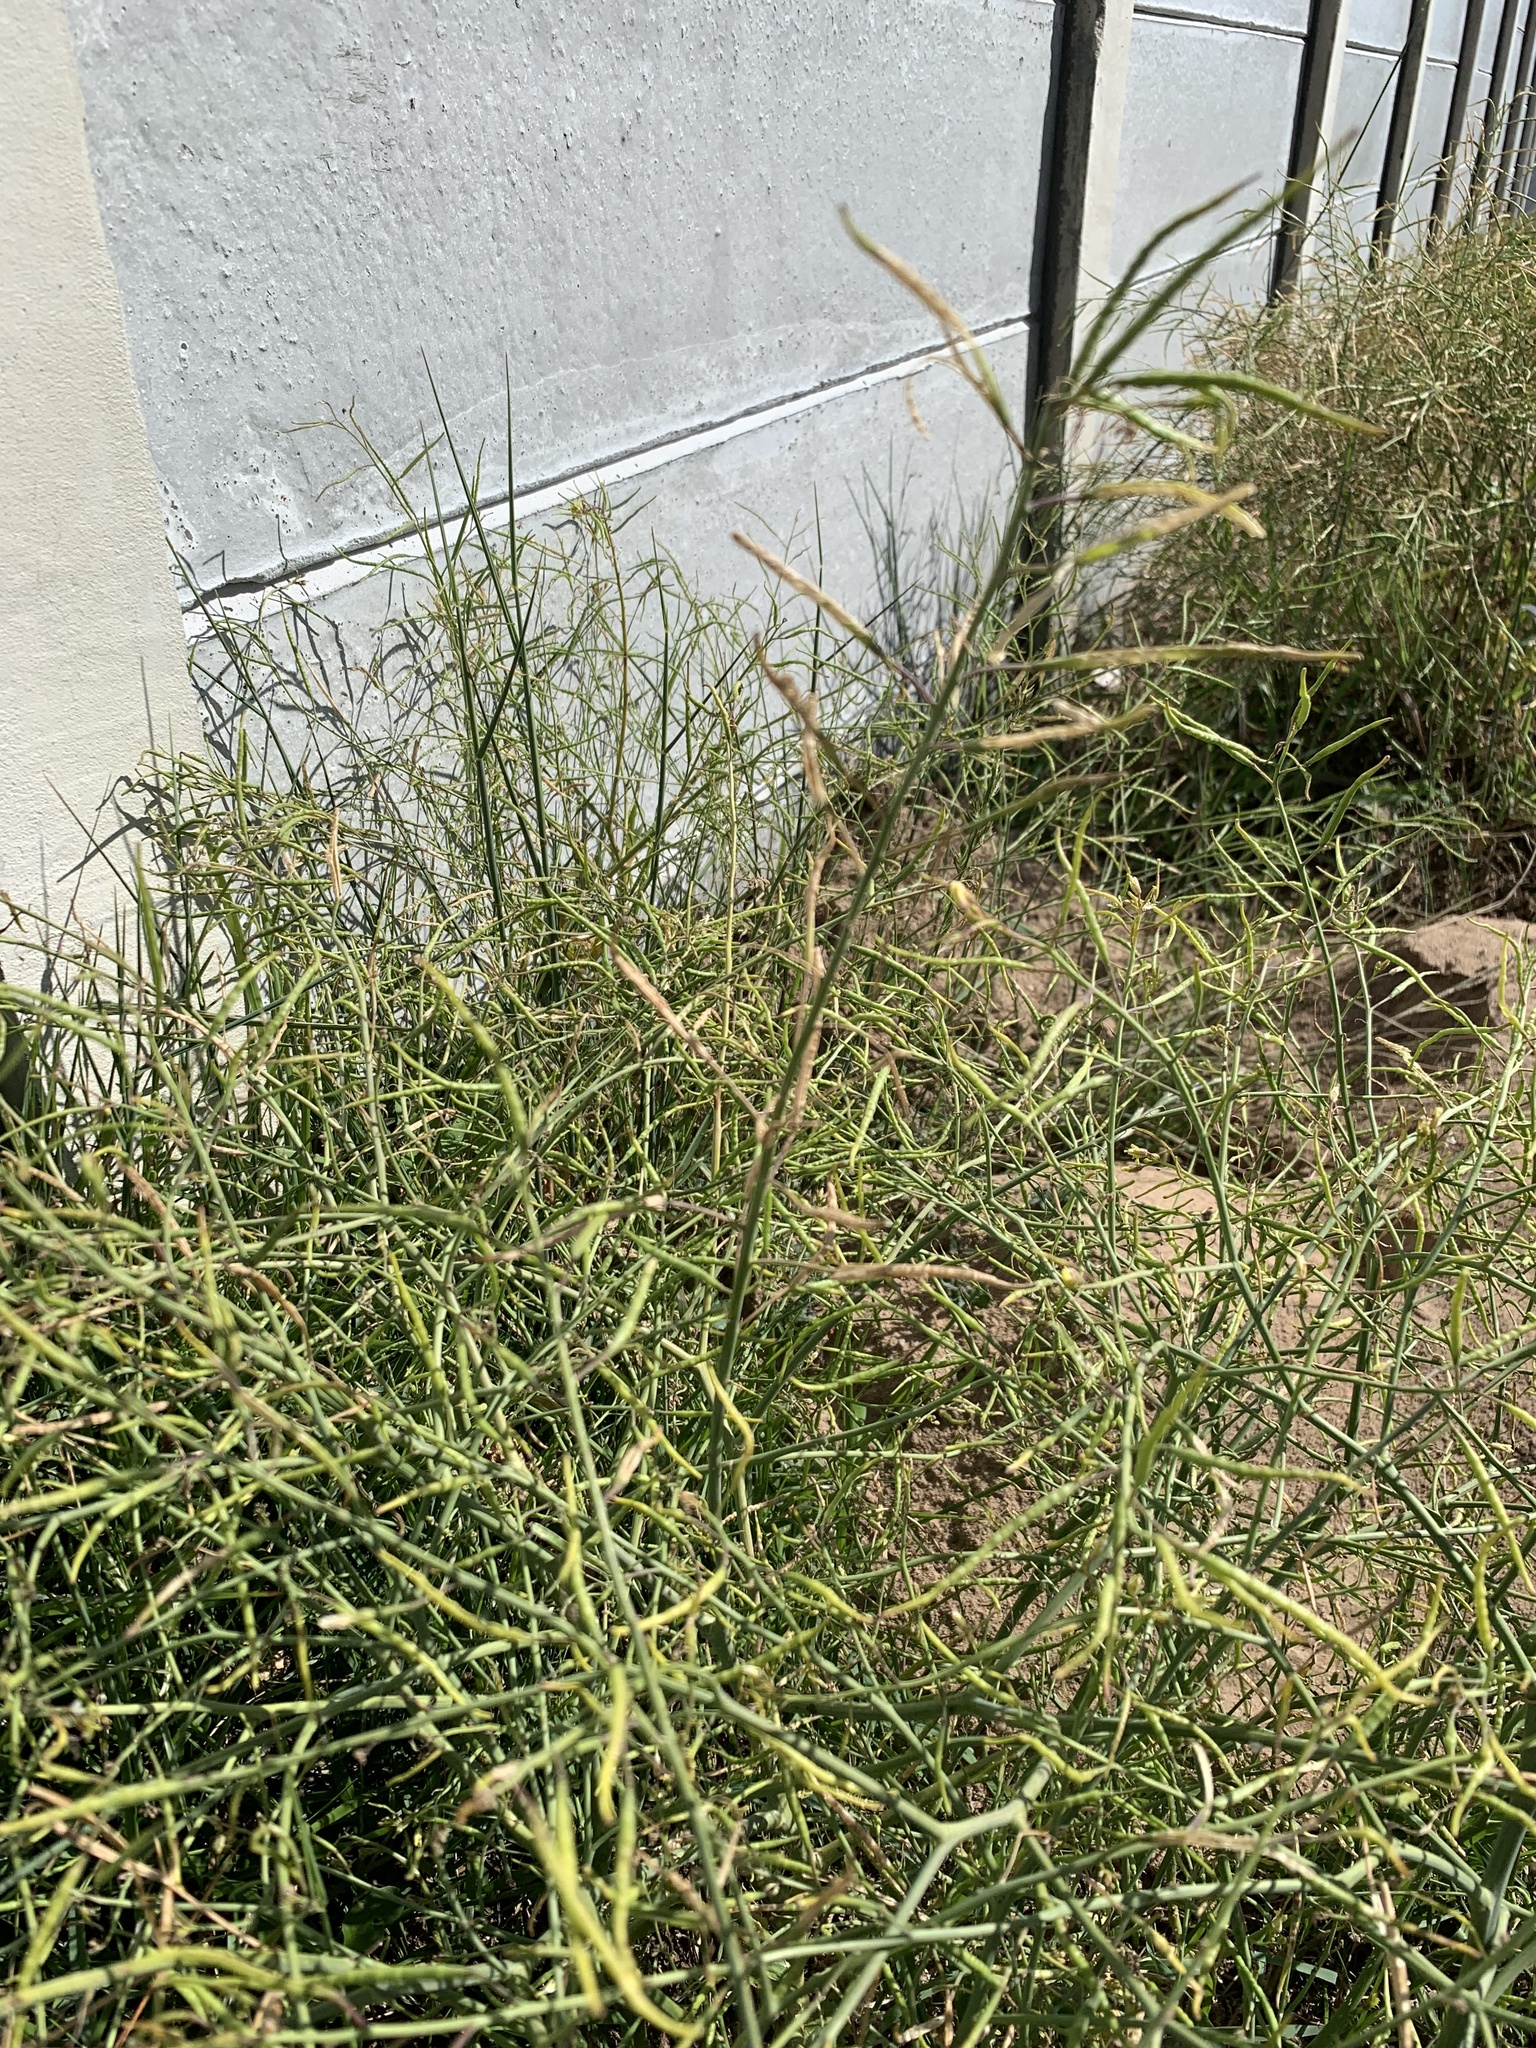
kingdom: Plantae
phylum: Tracheophyta
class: Magnoliopsida
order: Brassicales
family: Brassicaceae
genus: Brassica
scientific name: Brassica tournefortii
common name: Pale cabbage
